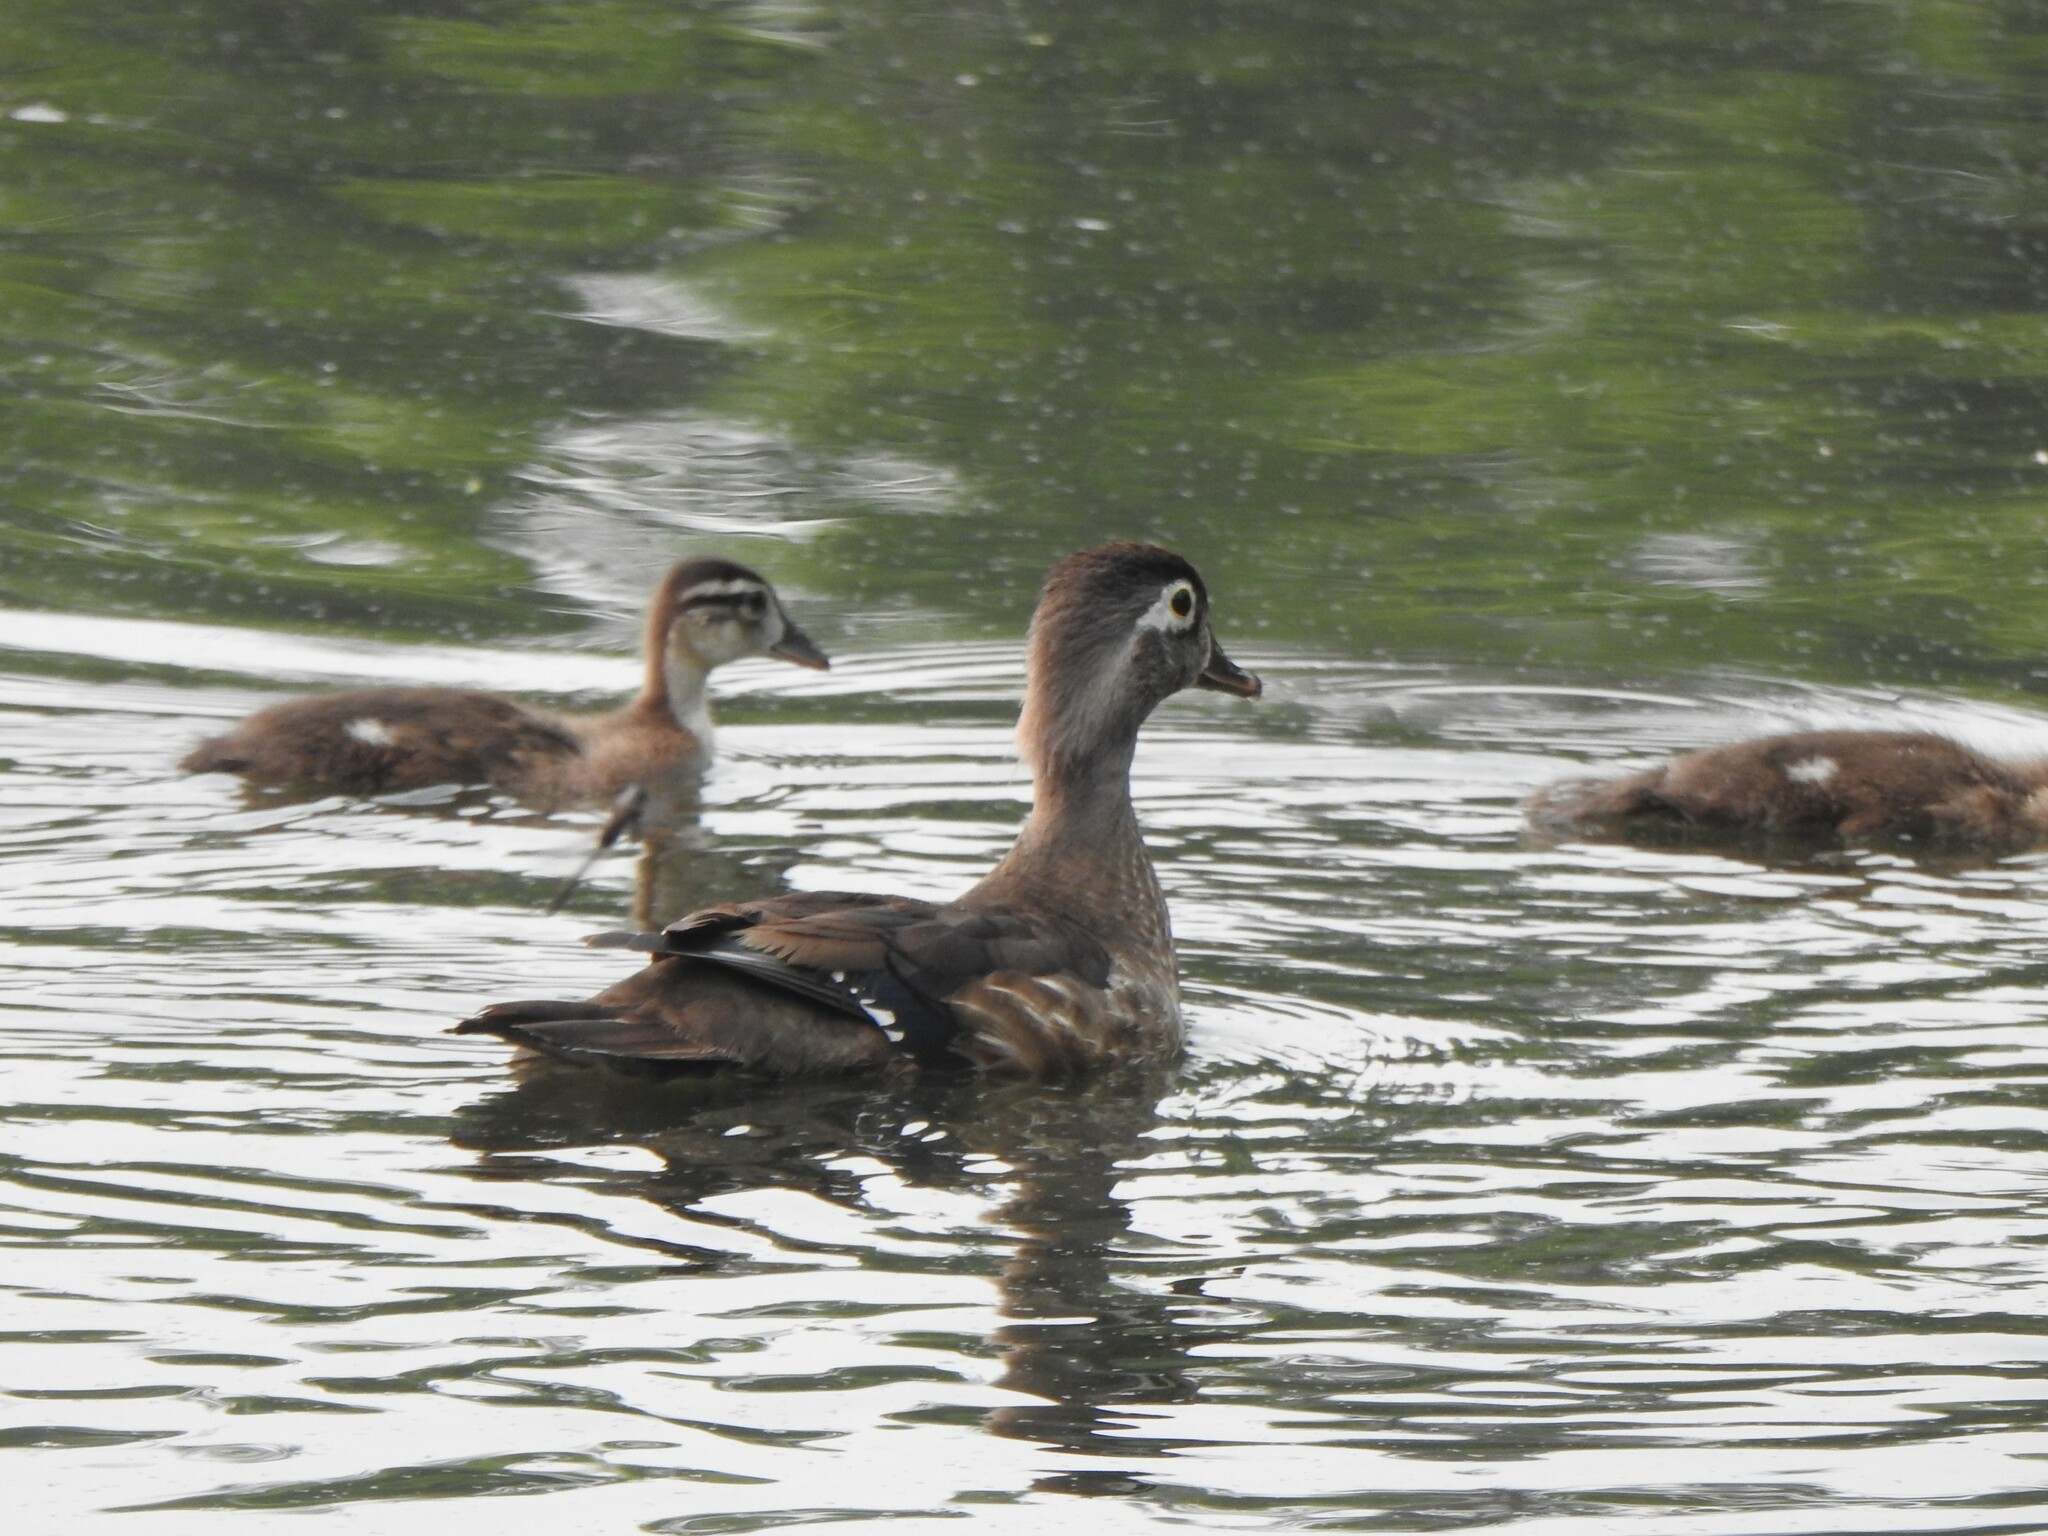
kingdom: Animalia
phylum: Chordata
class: Aves
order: Anseriformes
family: Anatidae
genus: Aix
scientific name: Aix sponsa
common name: Wood duck
